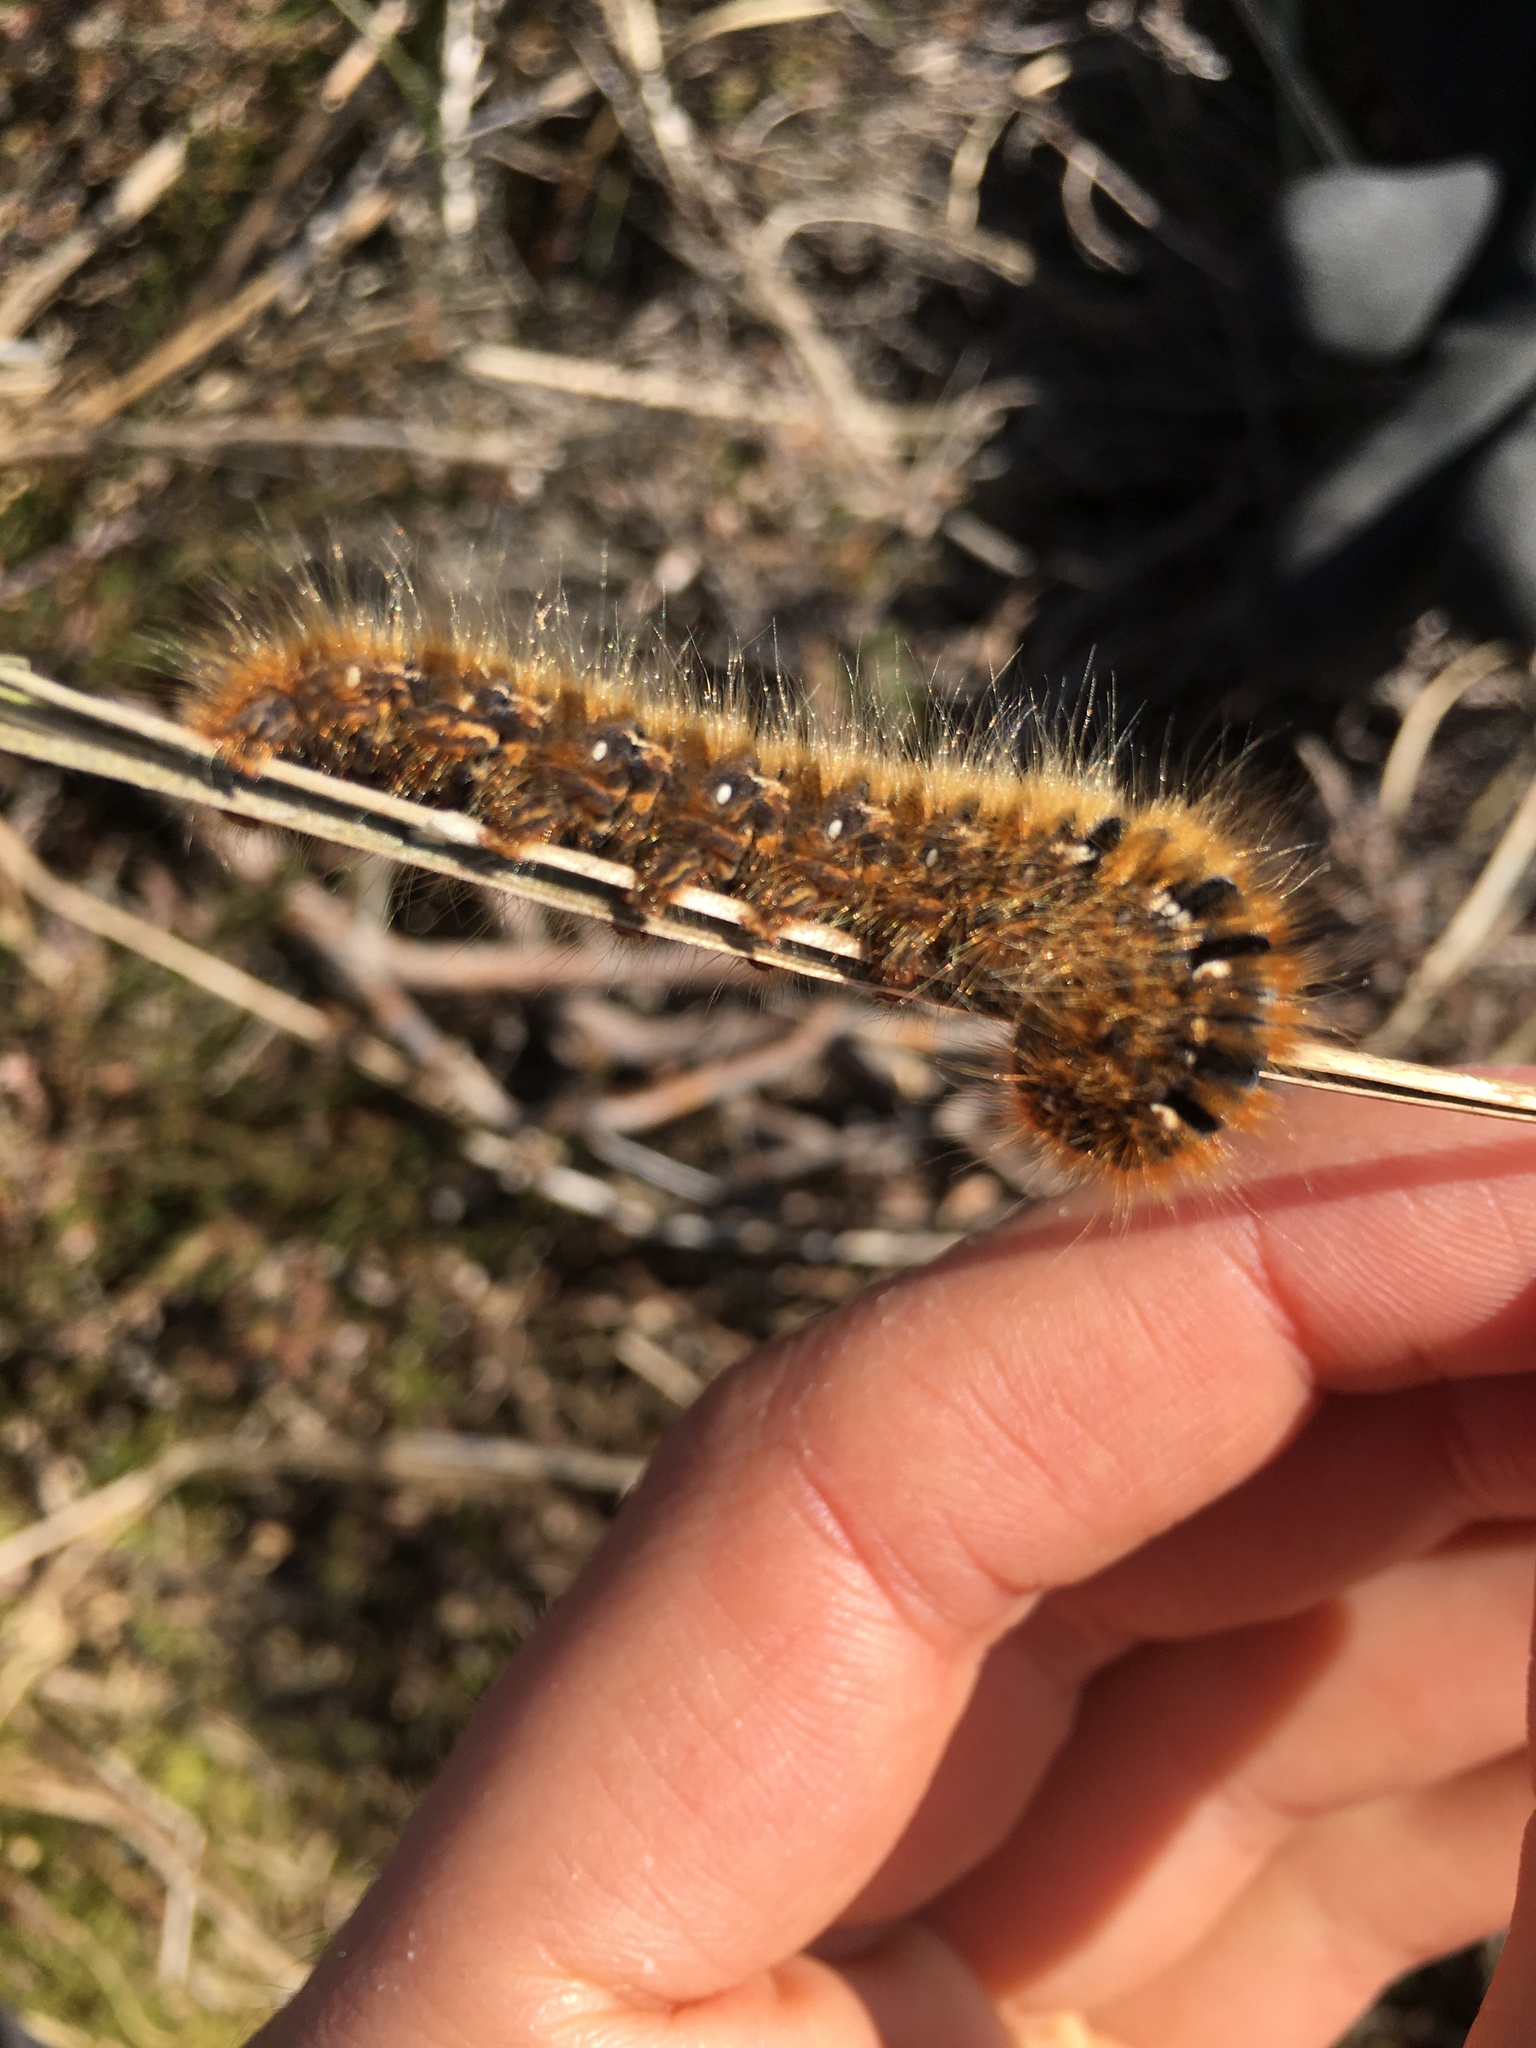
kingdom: Animalia
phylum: Arthropoda
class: Insecta
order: Lepidoptera
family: Lasiocampidae
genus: Lasiocampa
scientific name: Lasiocampa quercus
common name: Oak eggar
